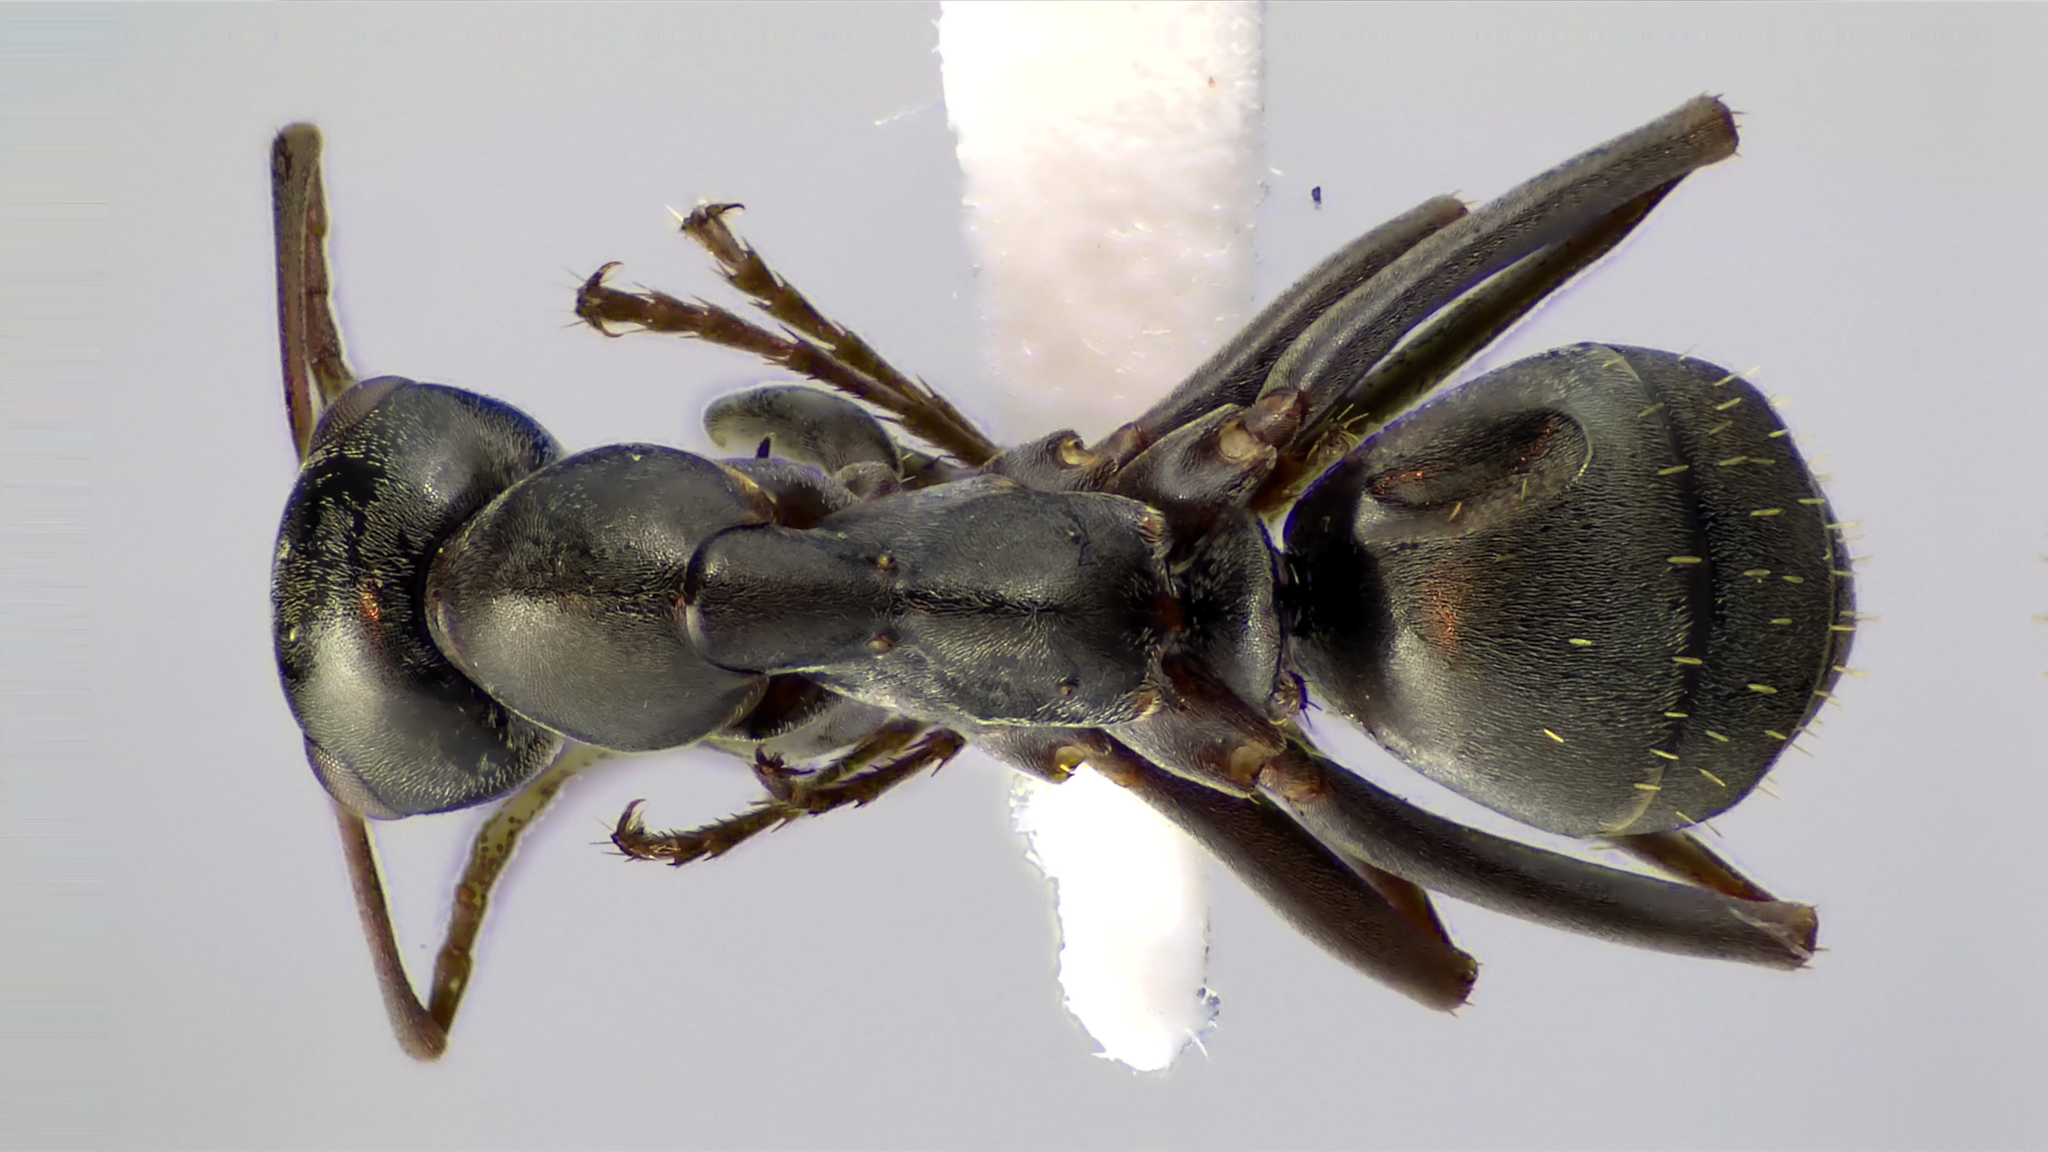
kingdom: Animalia
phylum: Arthropoda
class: Insecta
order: Hymenoptera
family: Formicidae
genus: Formica
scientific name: Formica subsericea
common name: Silky field ant
